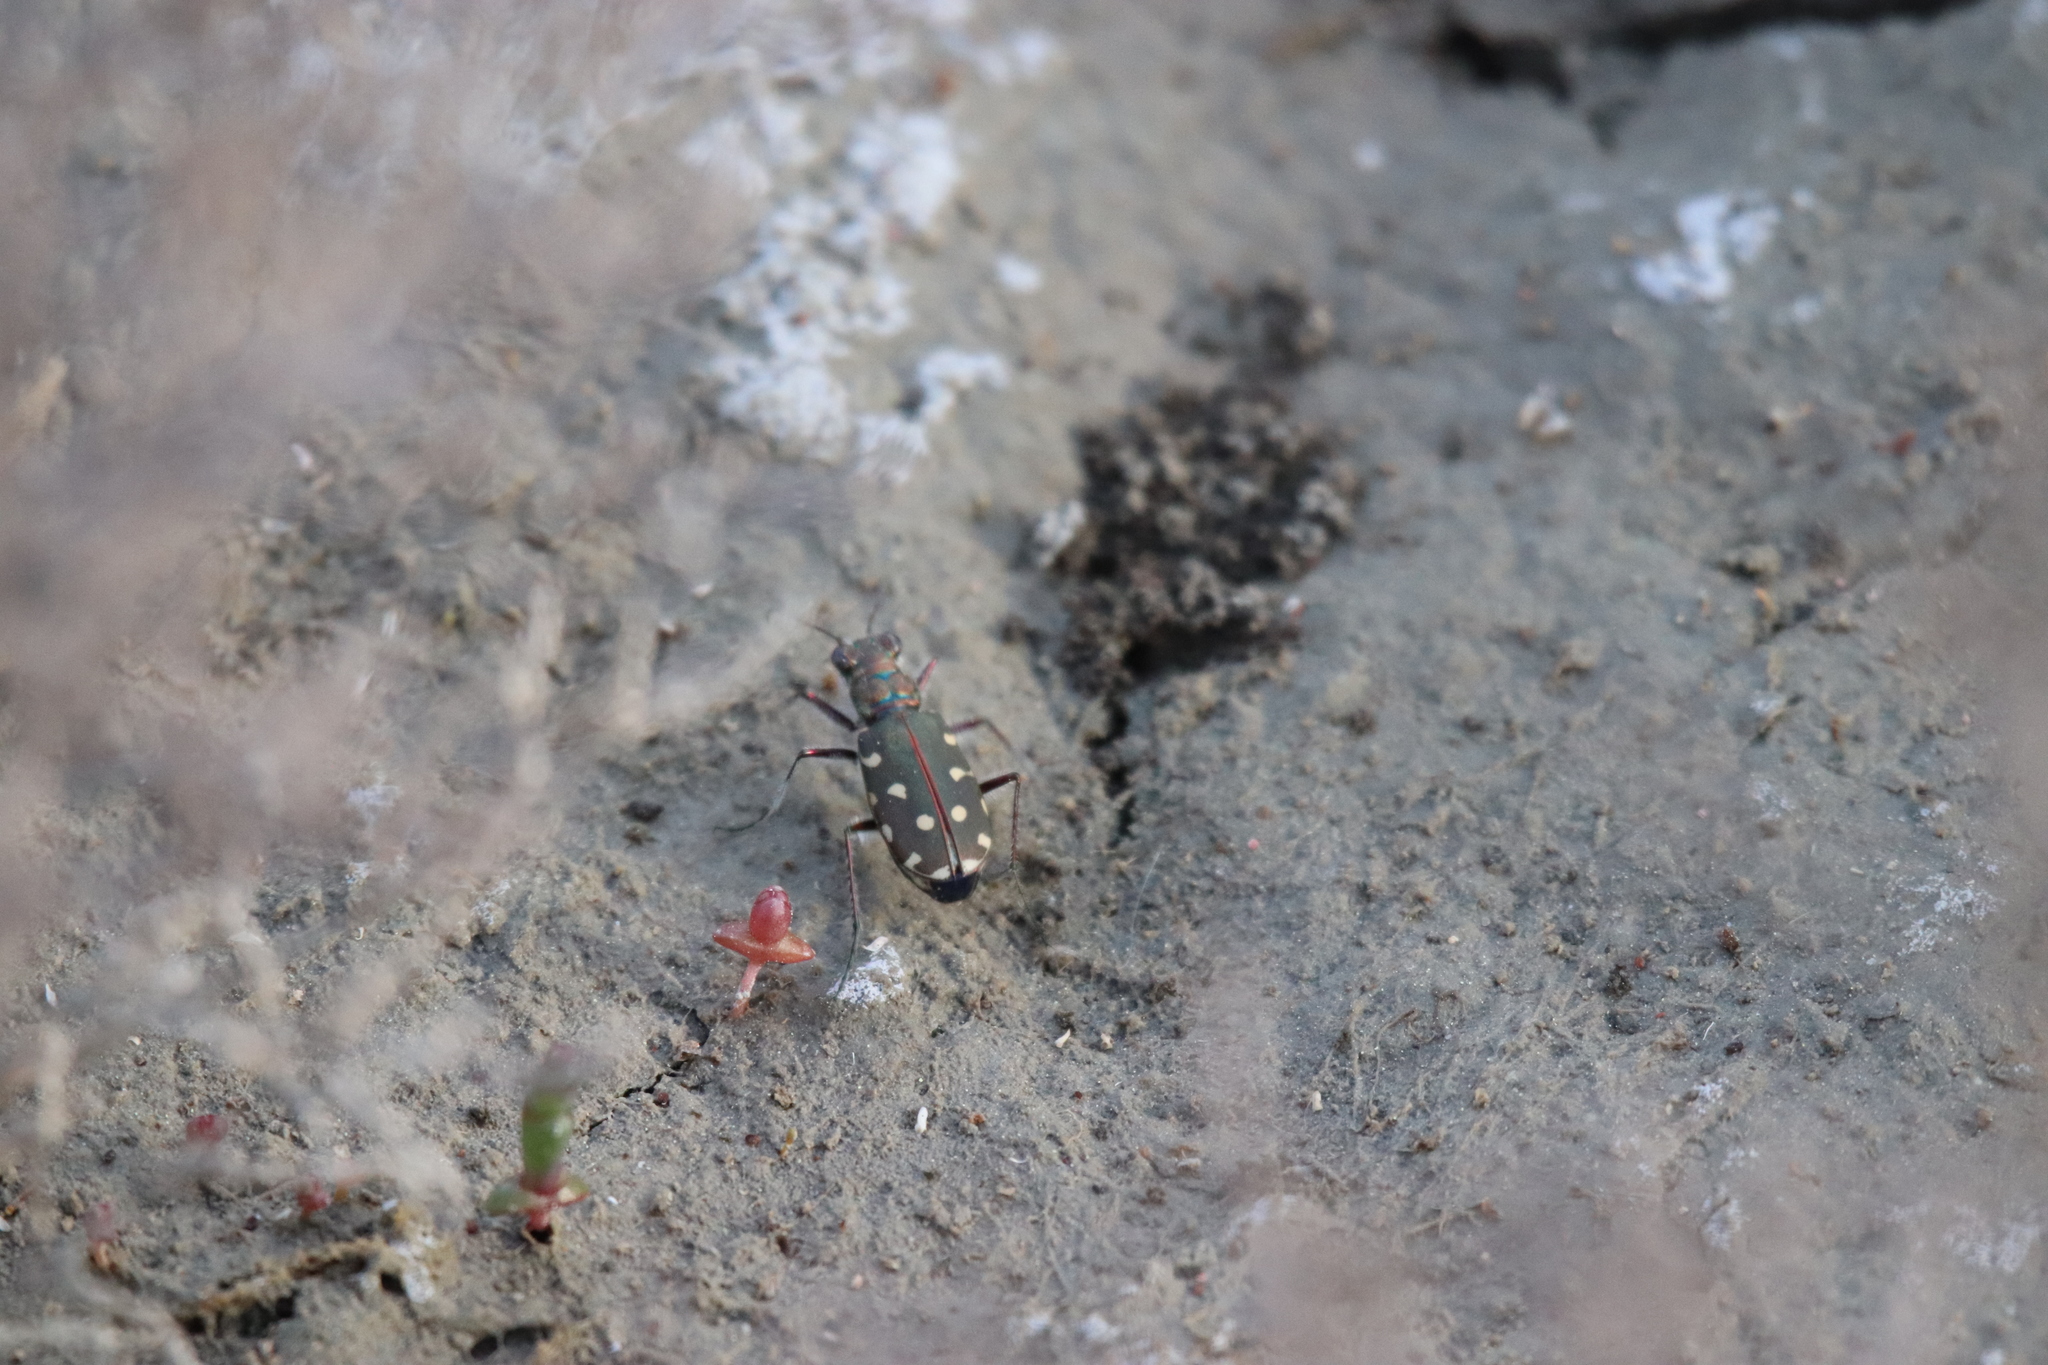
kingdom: Animalia
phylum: Arthropoda
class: Insecta
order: Coleoptera
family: Carabidae
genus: Cicindela
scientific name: Cicindela littoralis
